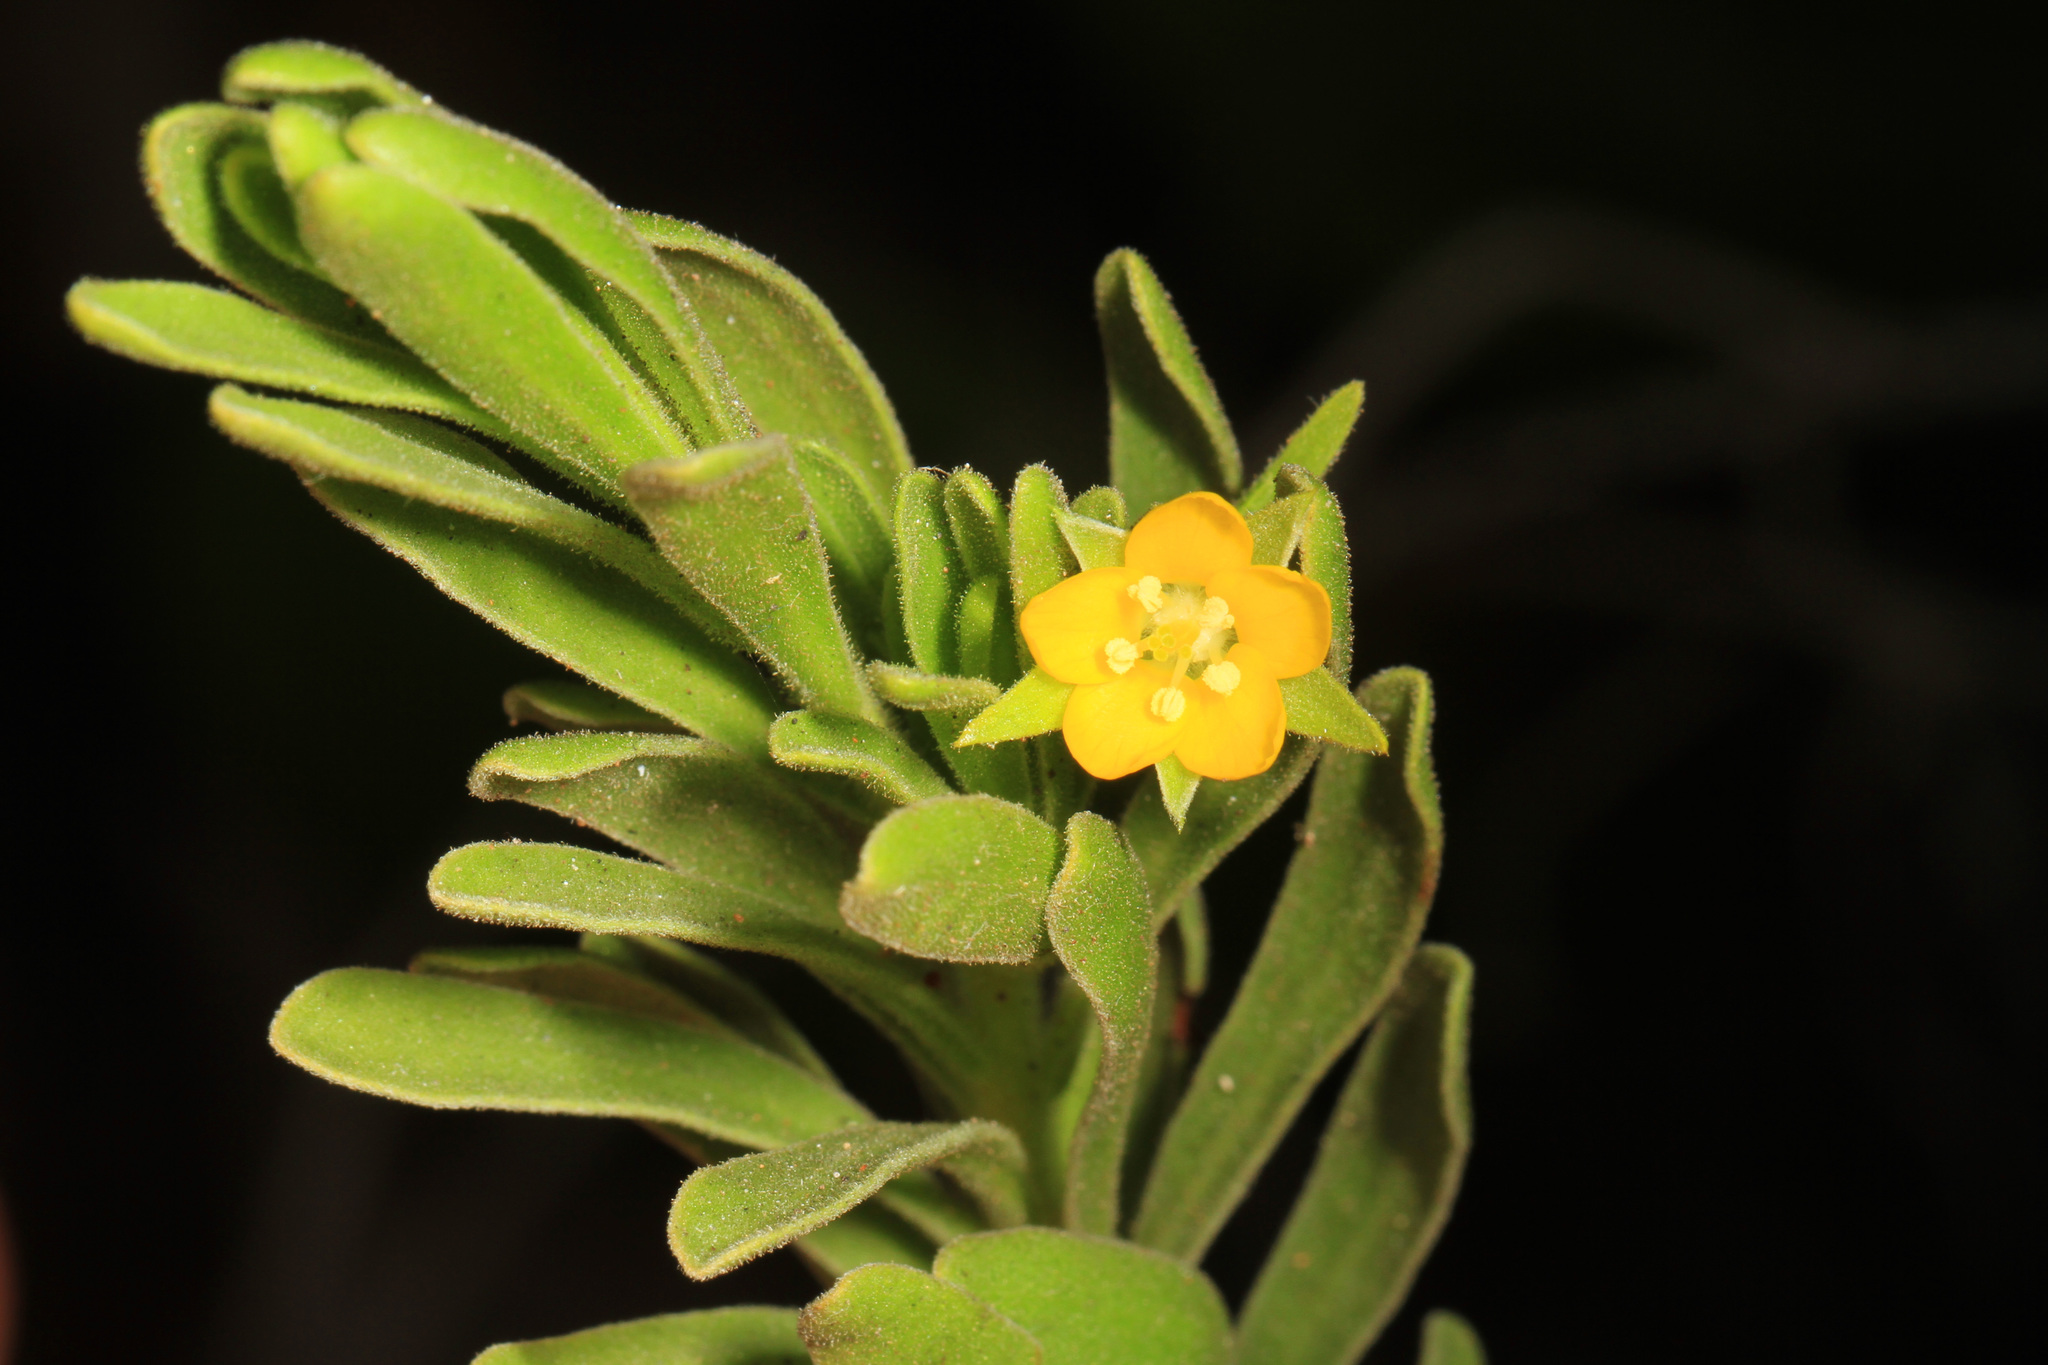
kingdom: Plantae
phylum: Tracheophyta
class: Magnoliopsida
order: Fabales
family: Surianaceae
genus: Suriana
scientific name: Suriana maritima
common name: Bay-cedar
